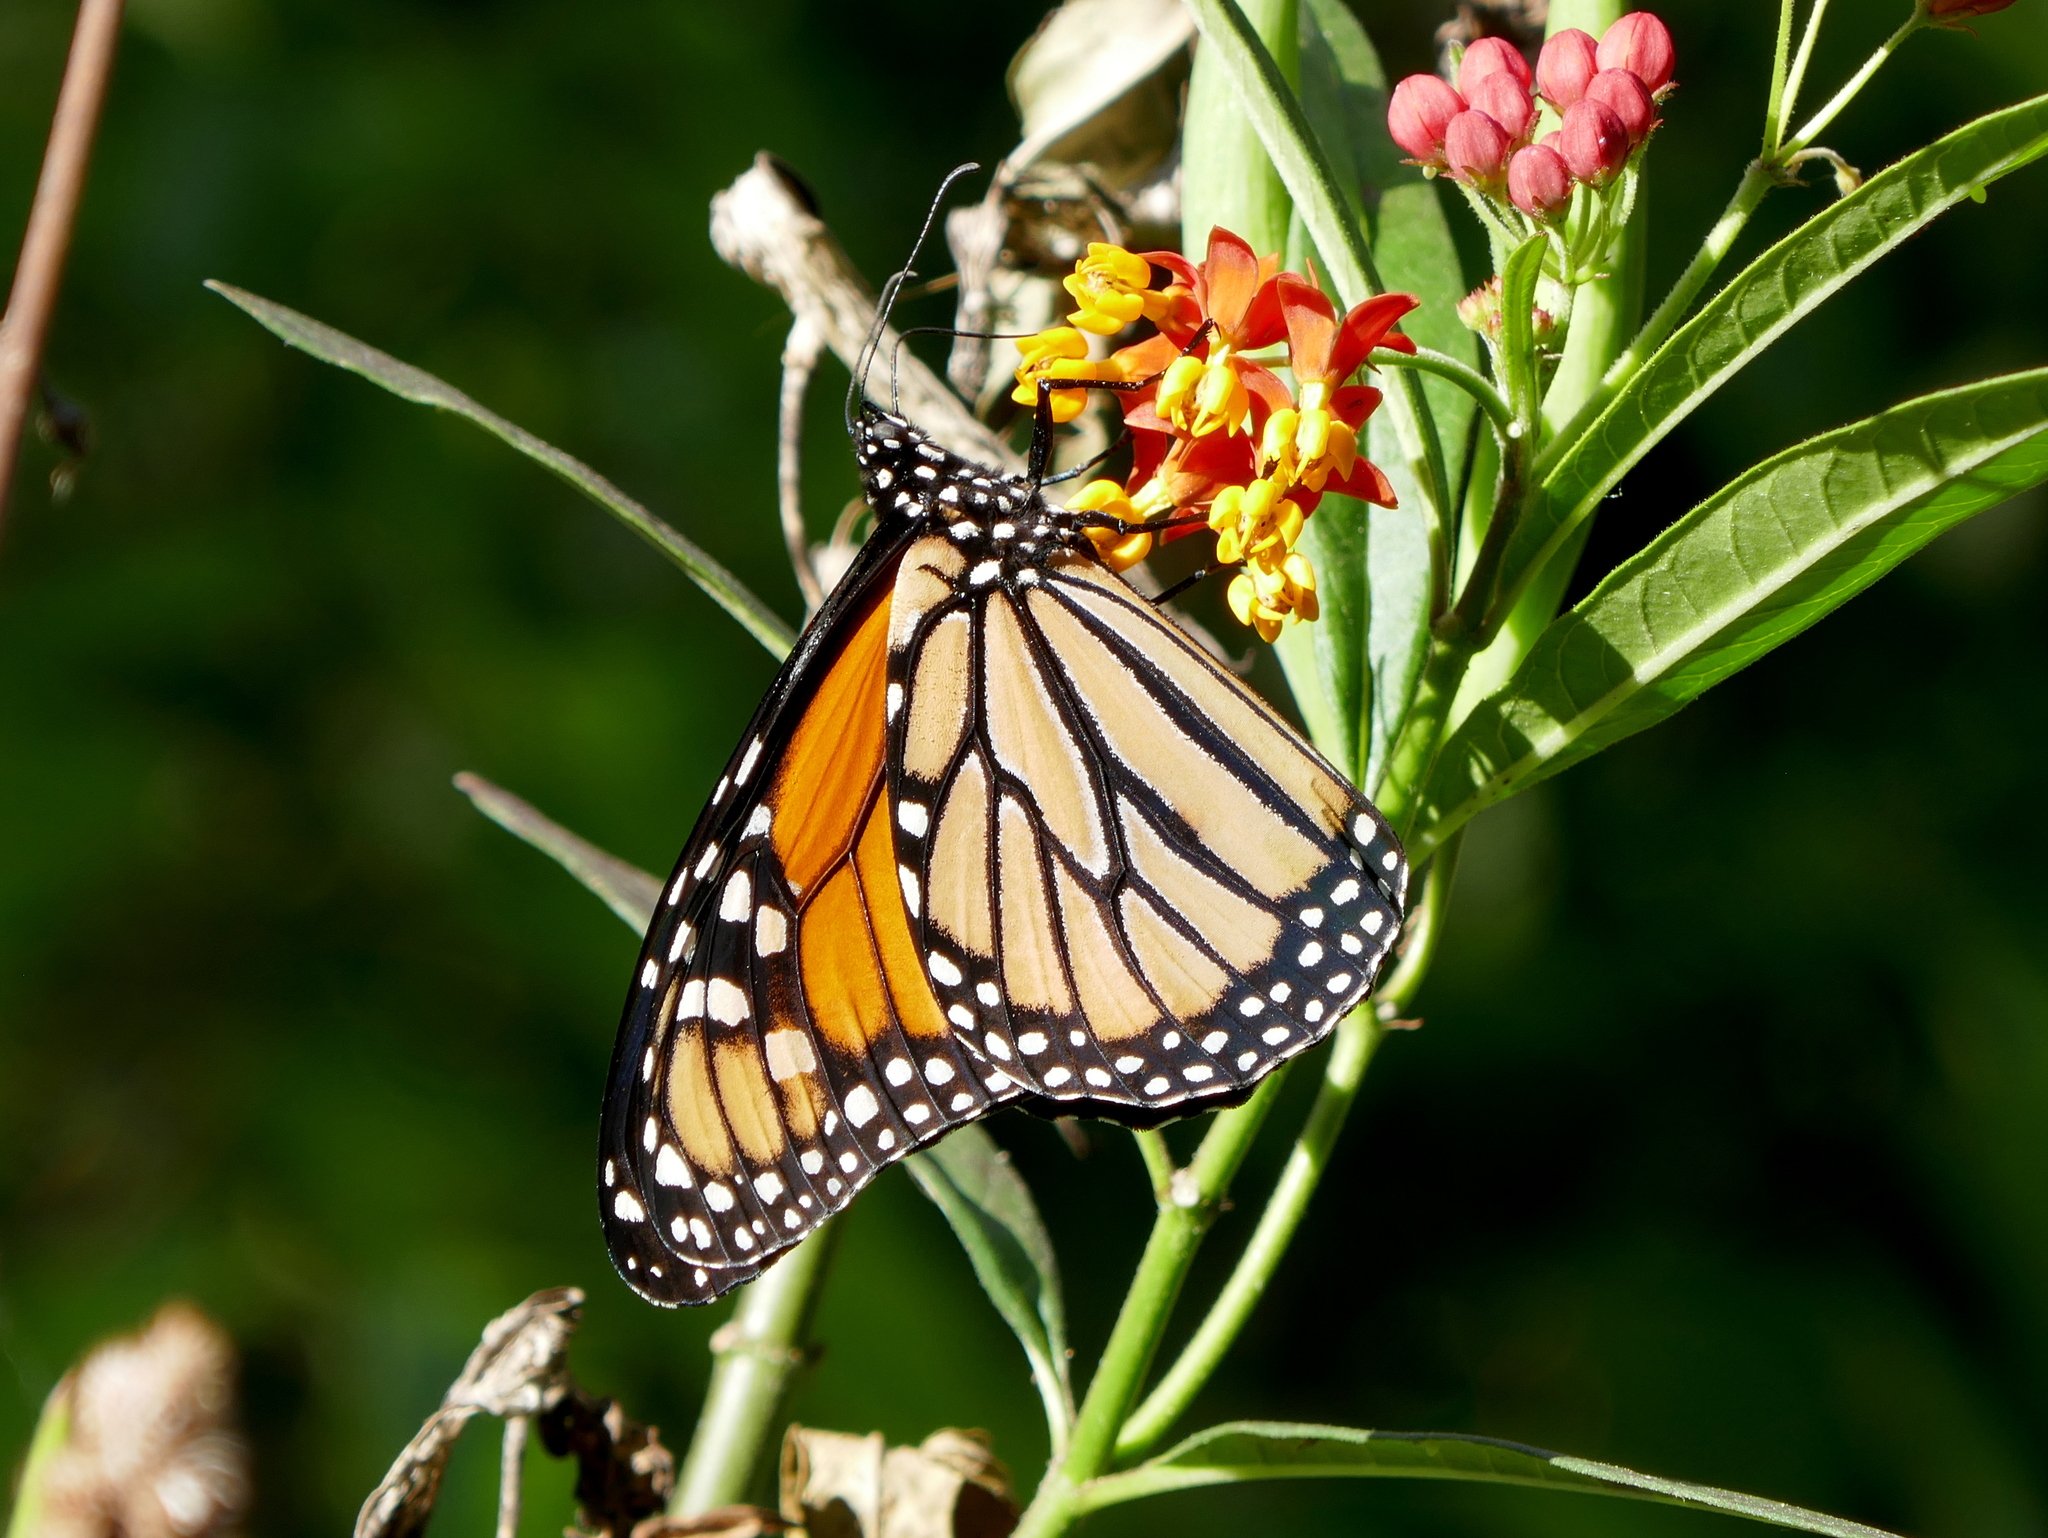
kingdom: Animalia
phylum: Arthropoda
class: Insecta
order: Lepidoptera
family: Nymphalidae
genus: Danaus
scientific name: Danaus plexippus
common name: Monarch
